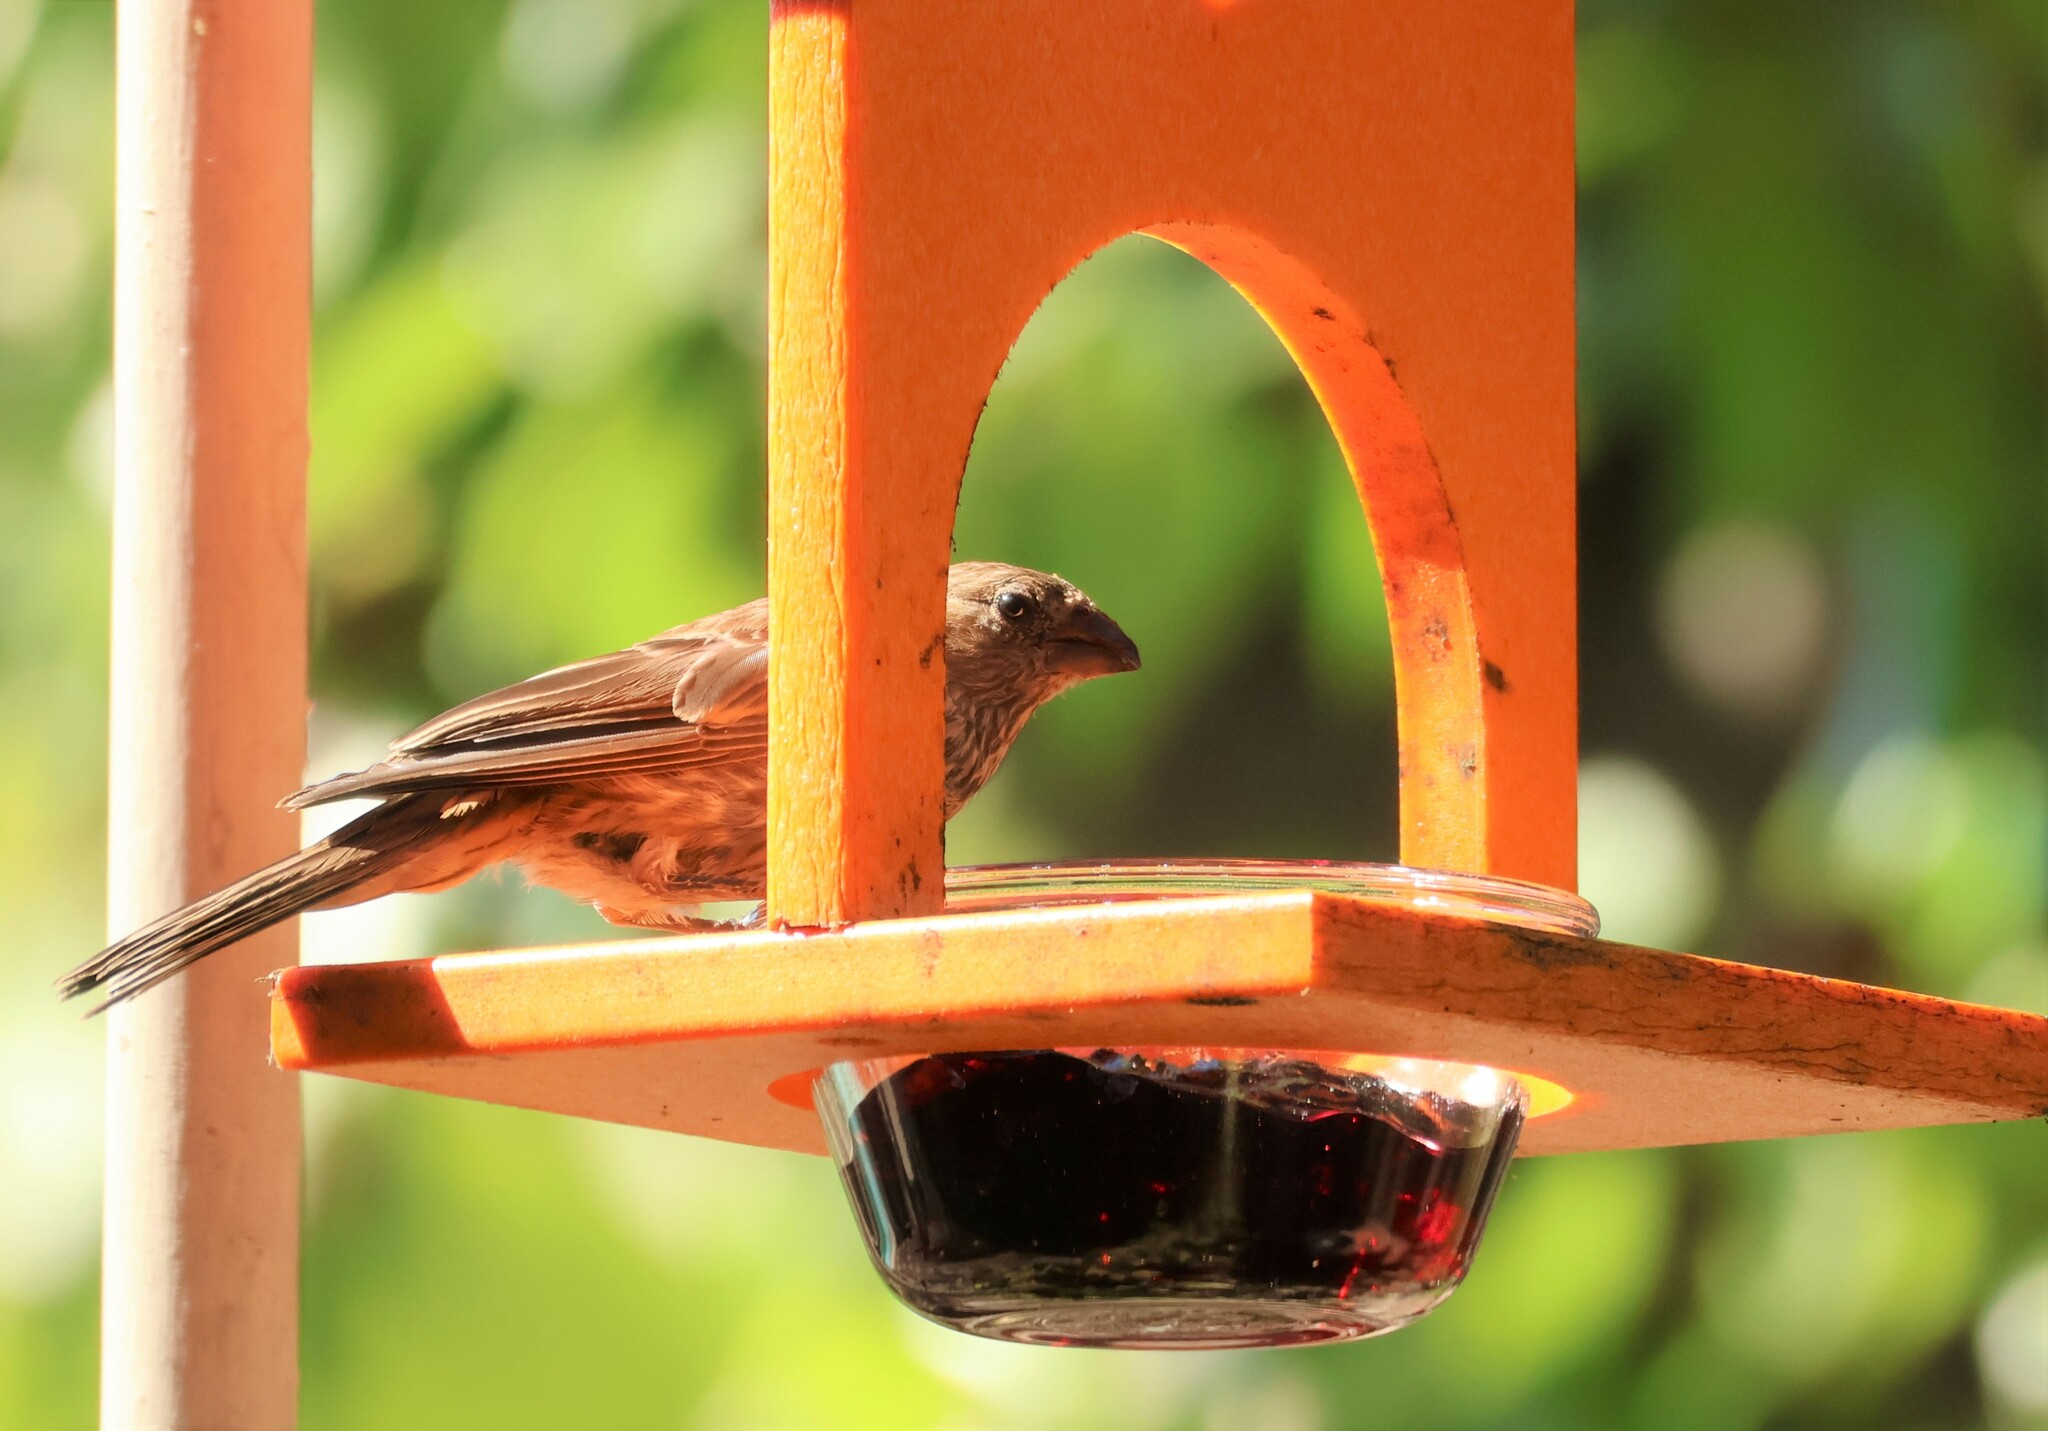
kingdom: Animalia
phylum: Chordata
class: Aves
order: Passeriformes
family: Fringillidae
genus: Haemorhous
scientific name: Haemorhous mexicanus
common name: House finch
